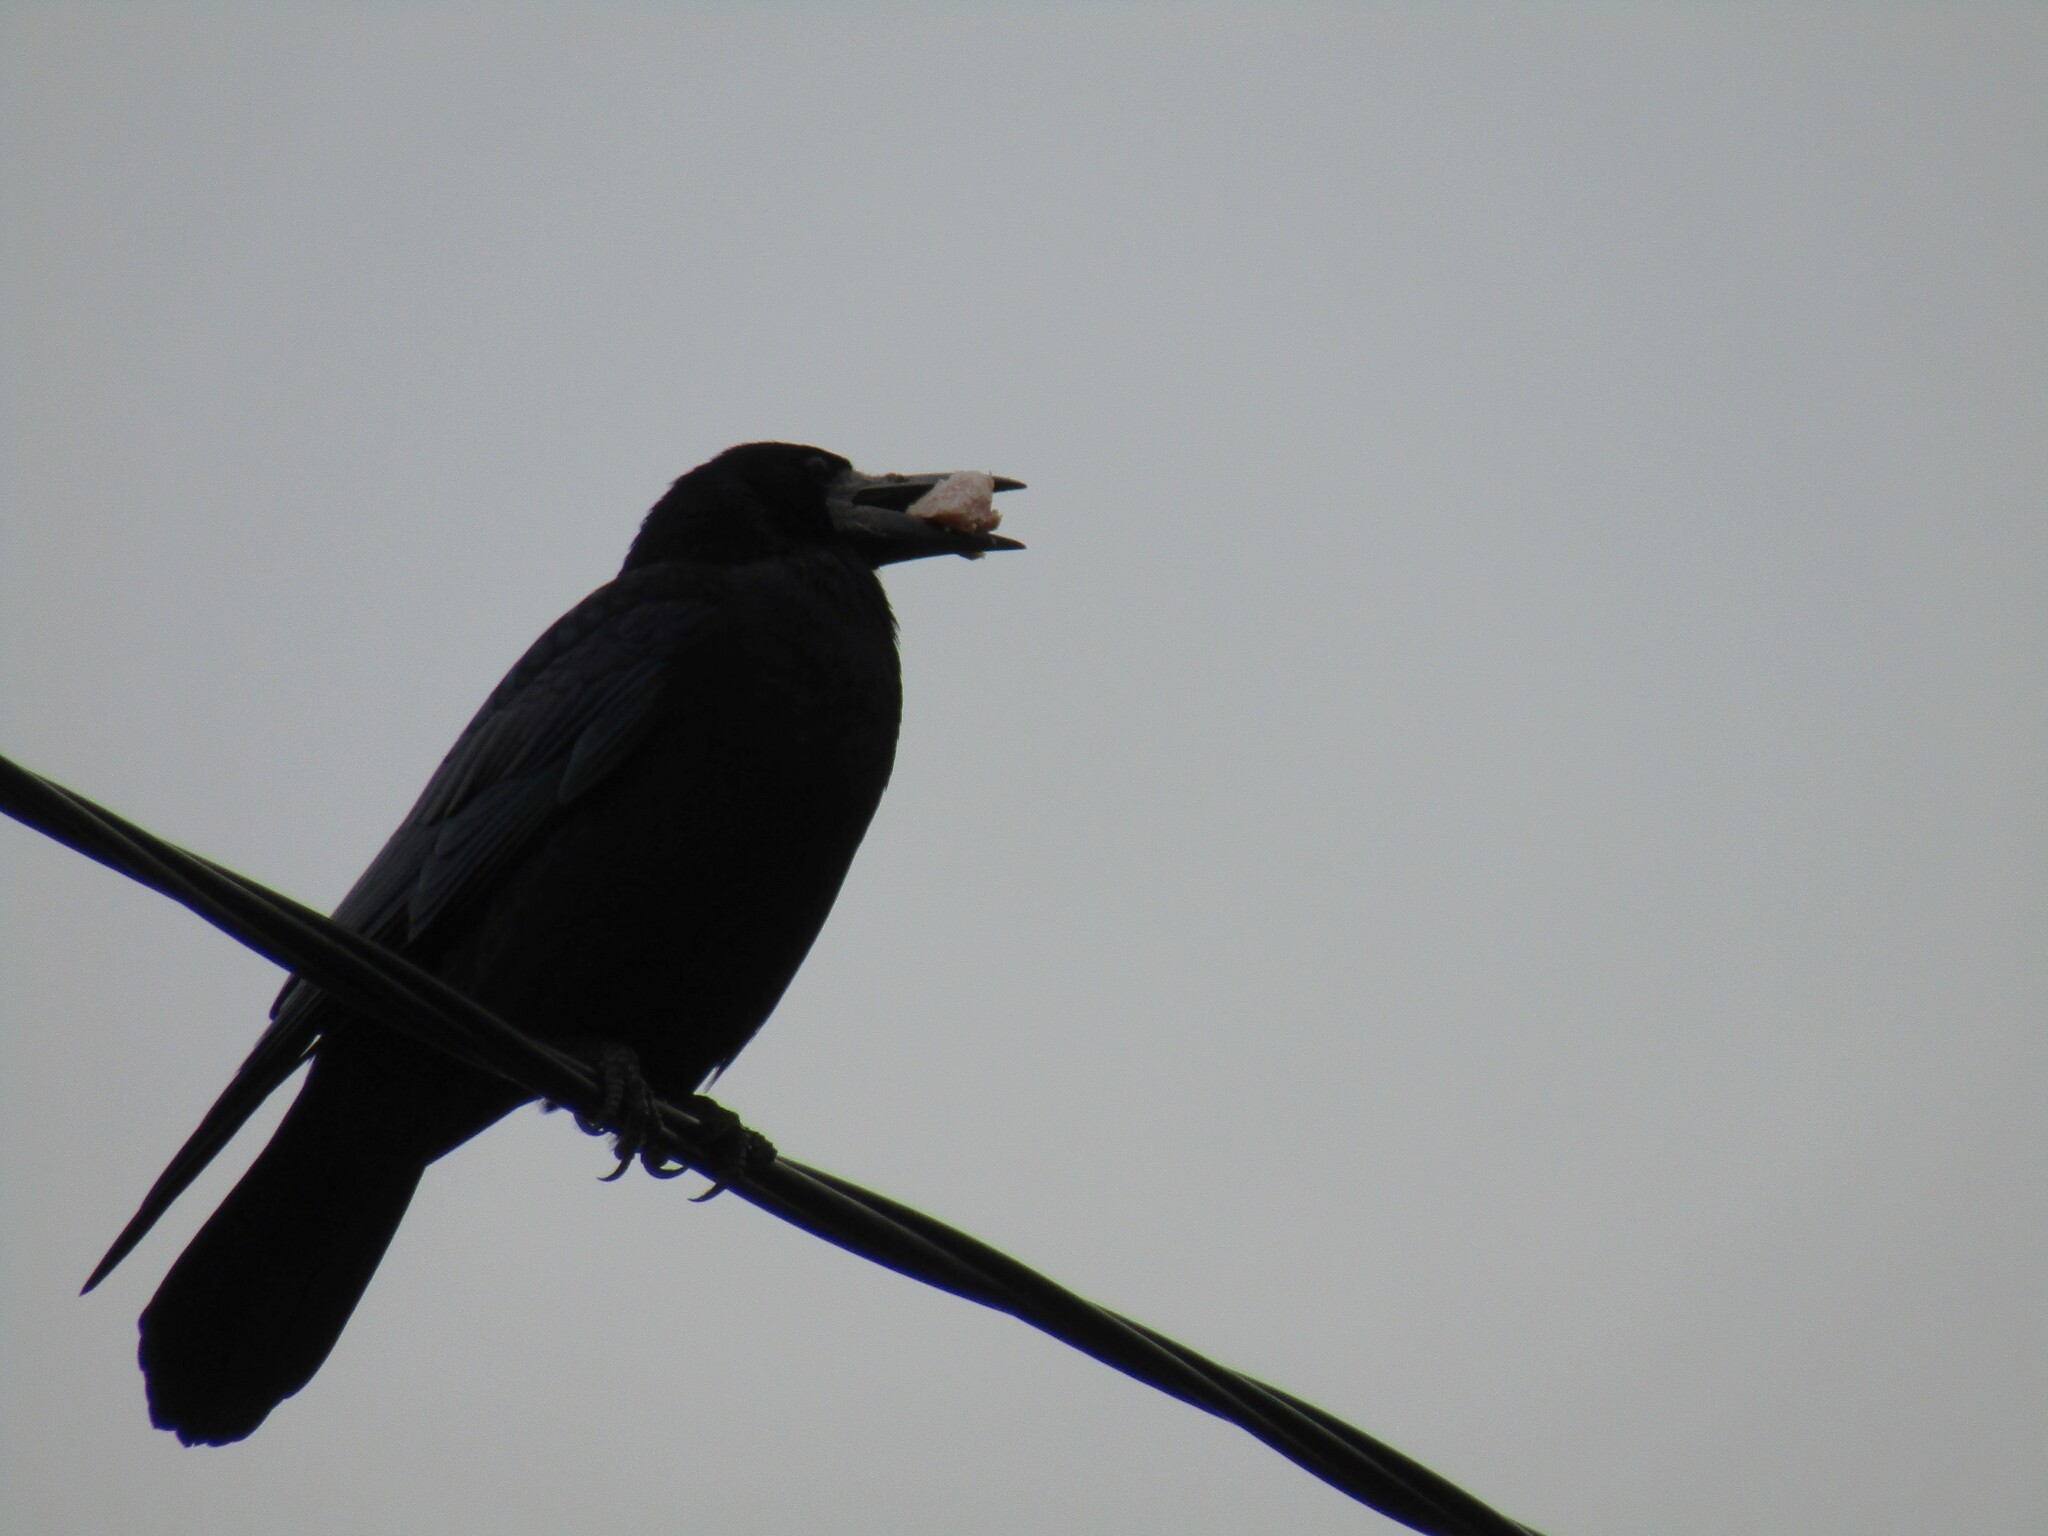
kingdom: Animalia
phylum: Chordata
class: Aves
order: Passeriformes
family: Corvidae
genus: Corvus
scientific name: Corvus frugilegus
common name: Rook
